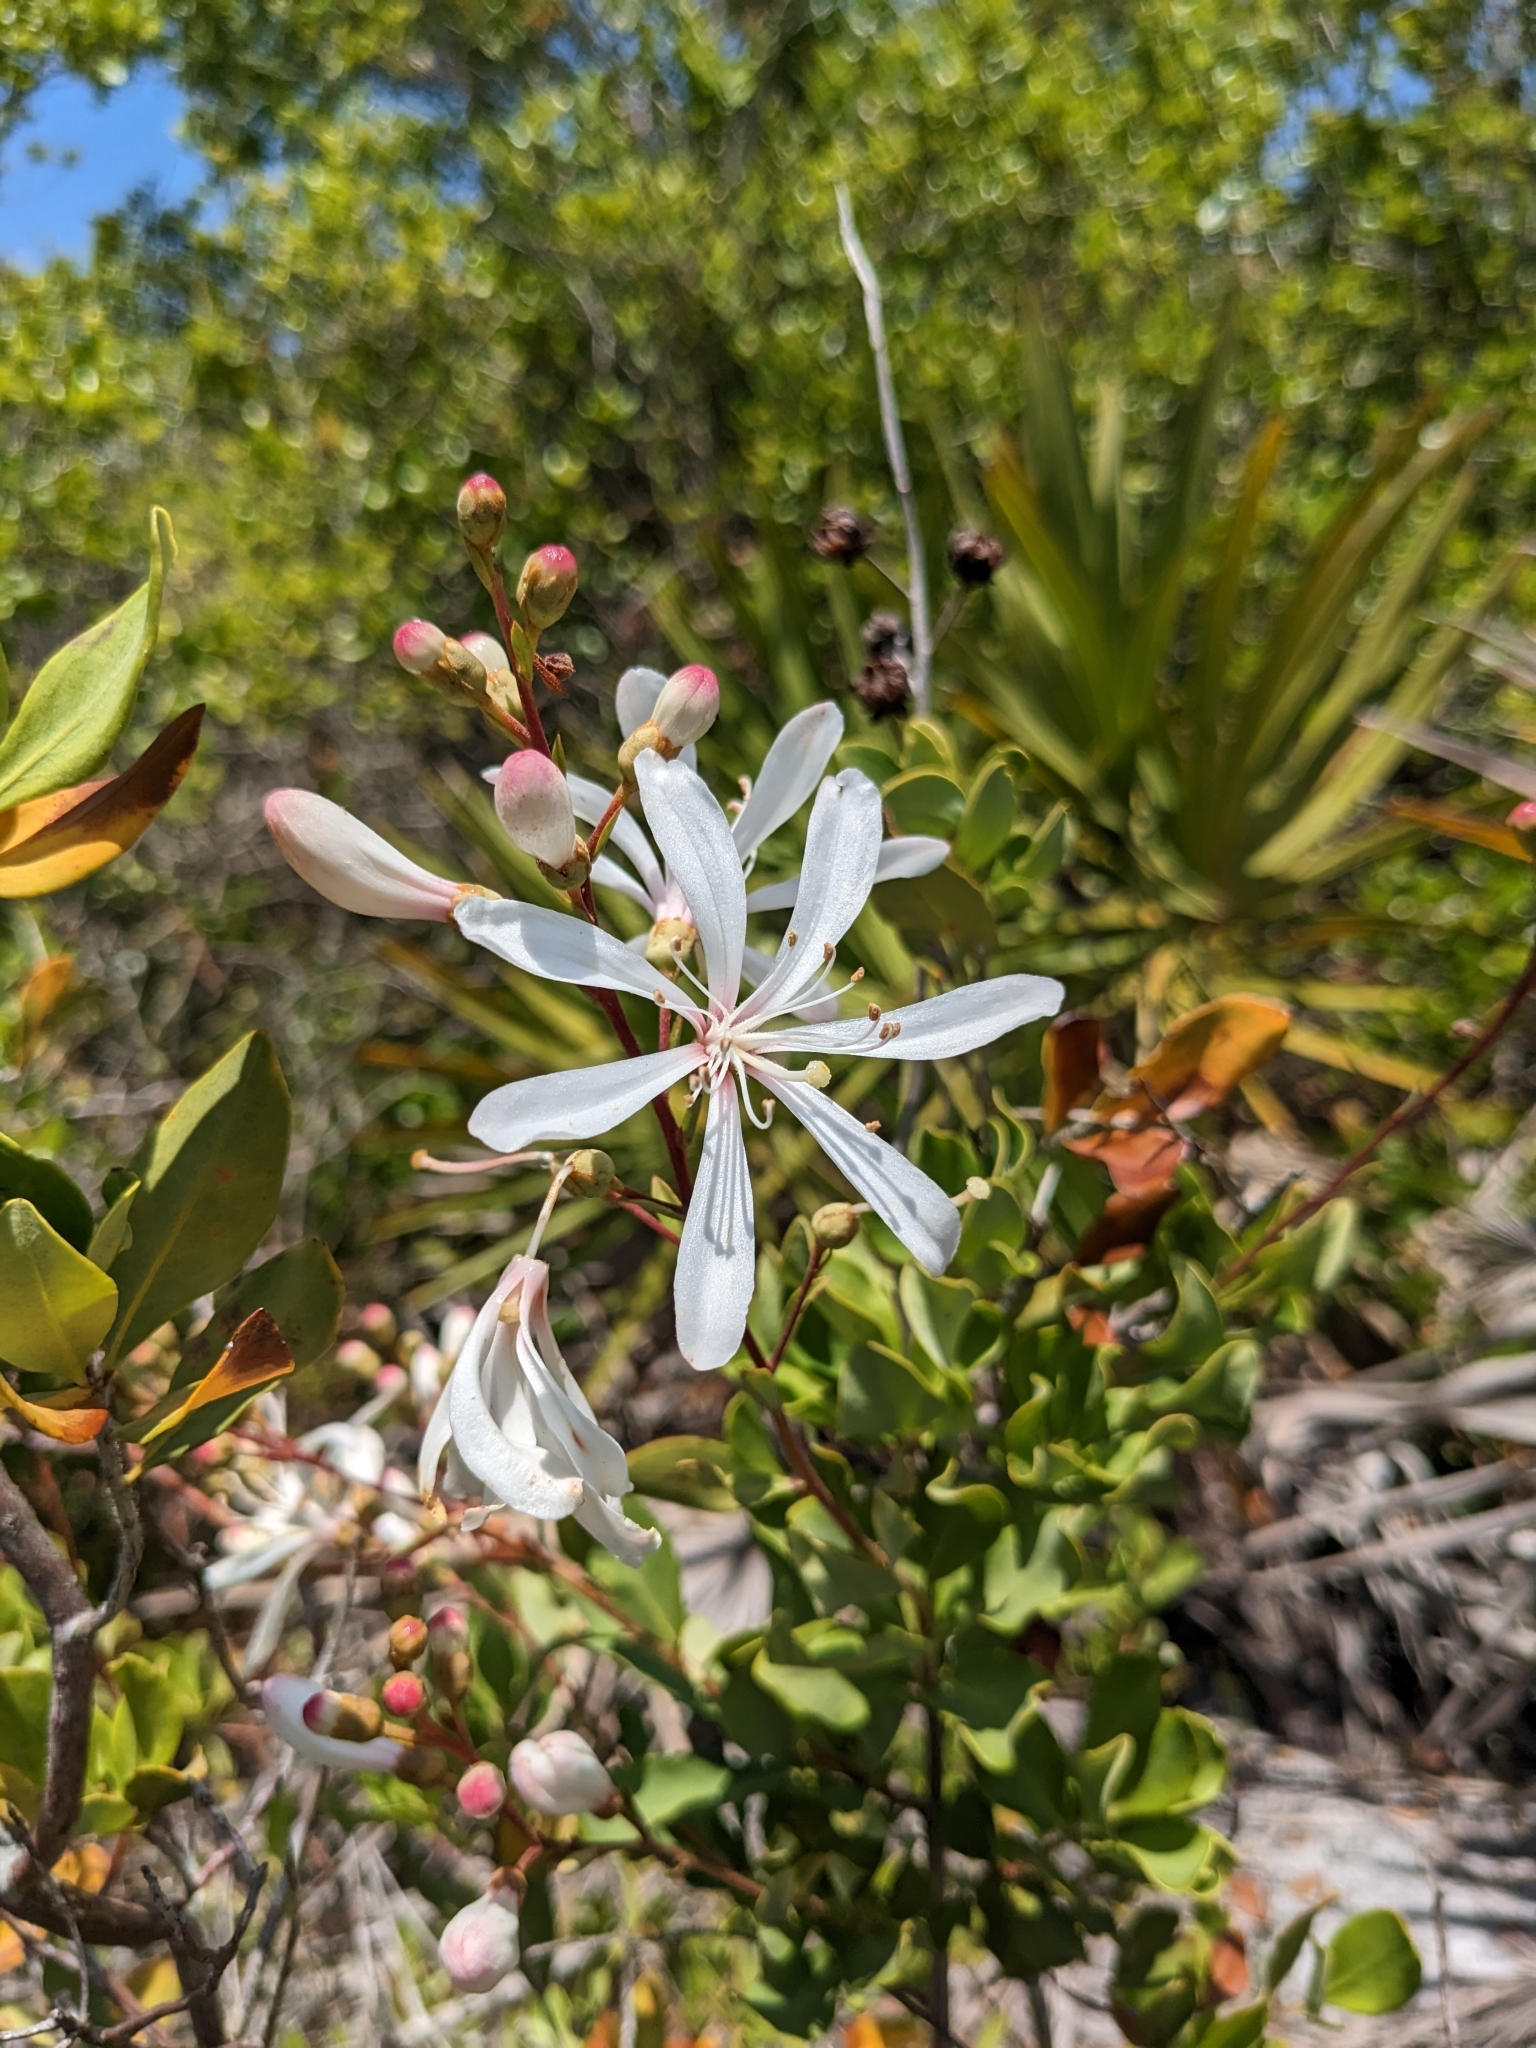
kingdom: Plantae
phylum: Tracheophyta
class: Magnoliopsida
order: Ericales
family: Ericaceae
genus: Bejaria
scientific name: Bejaria racemosa
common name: Tarflower
